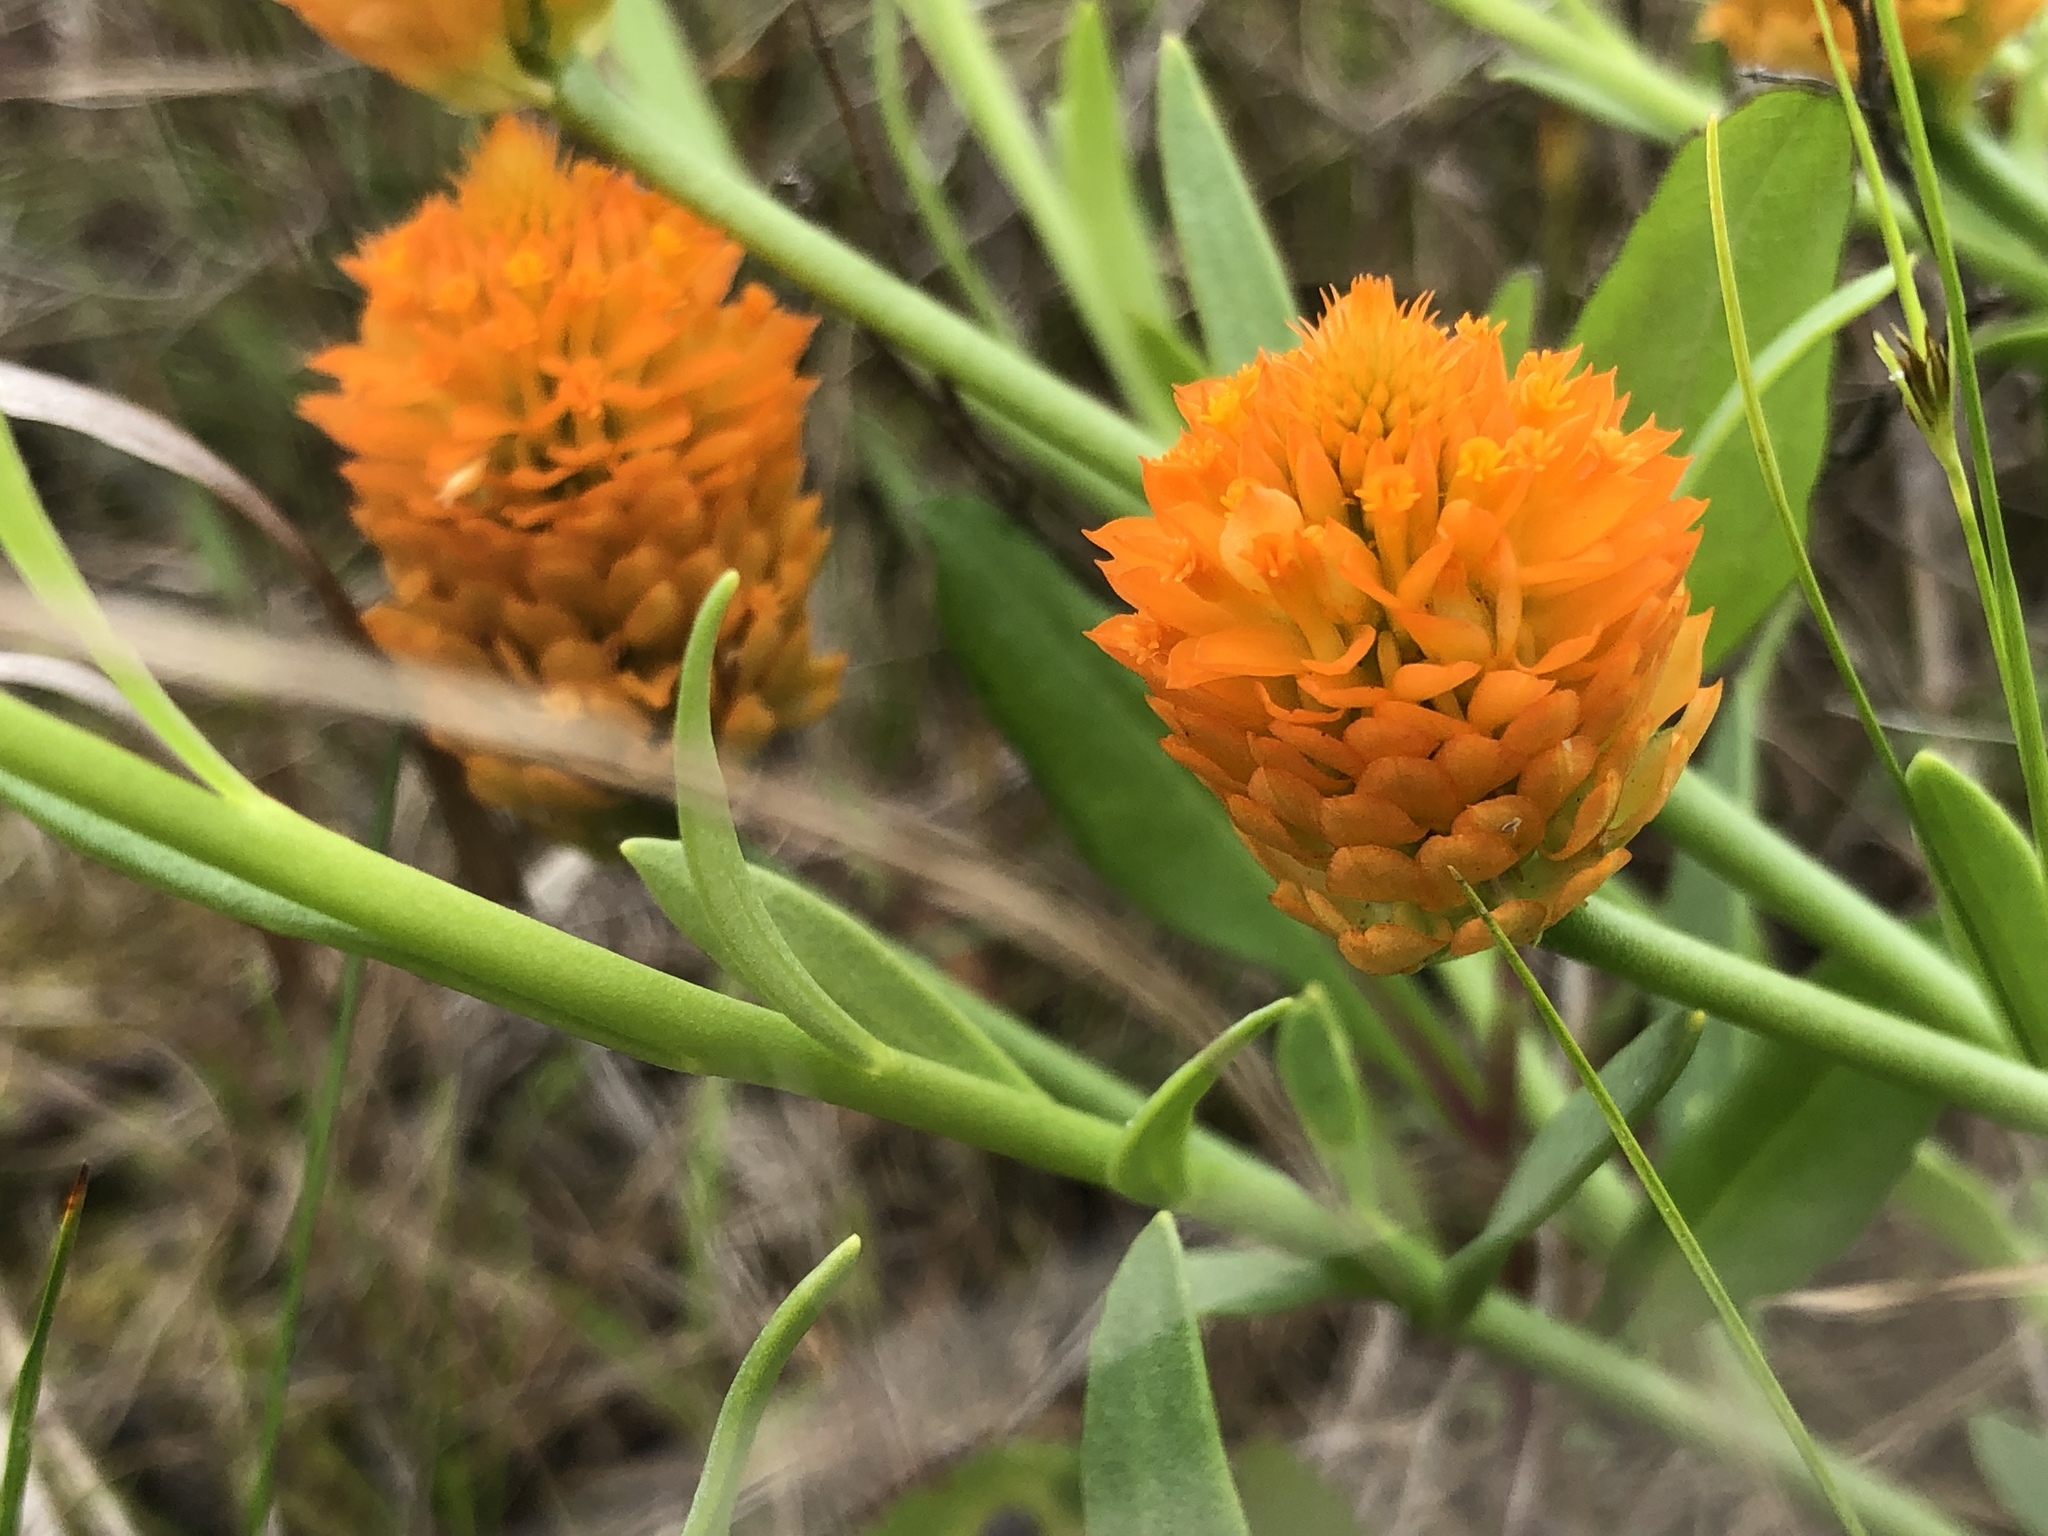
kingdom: Plantae
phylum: Tracheophyta
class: Magnoliopsida
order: Fabales
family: Polygalaceae
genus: Polygala
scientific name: Polygala lutea
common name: Orange milkwort
